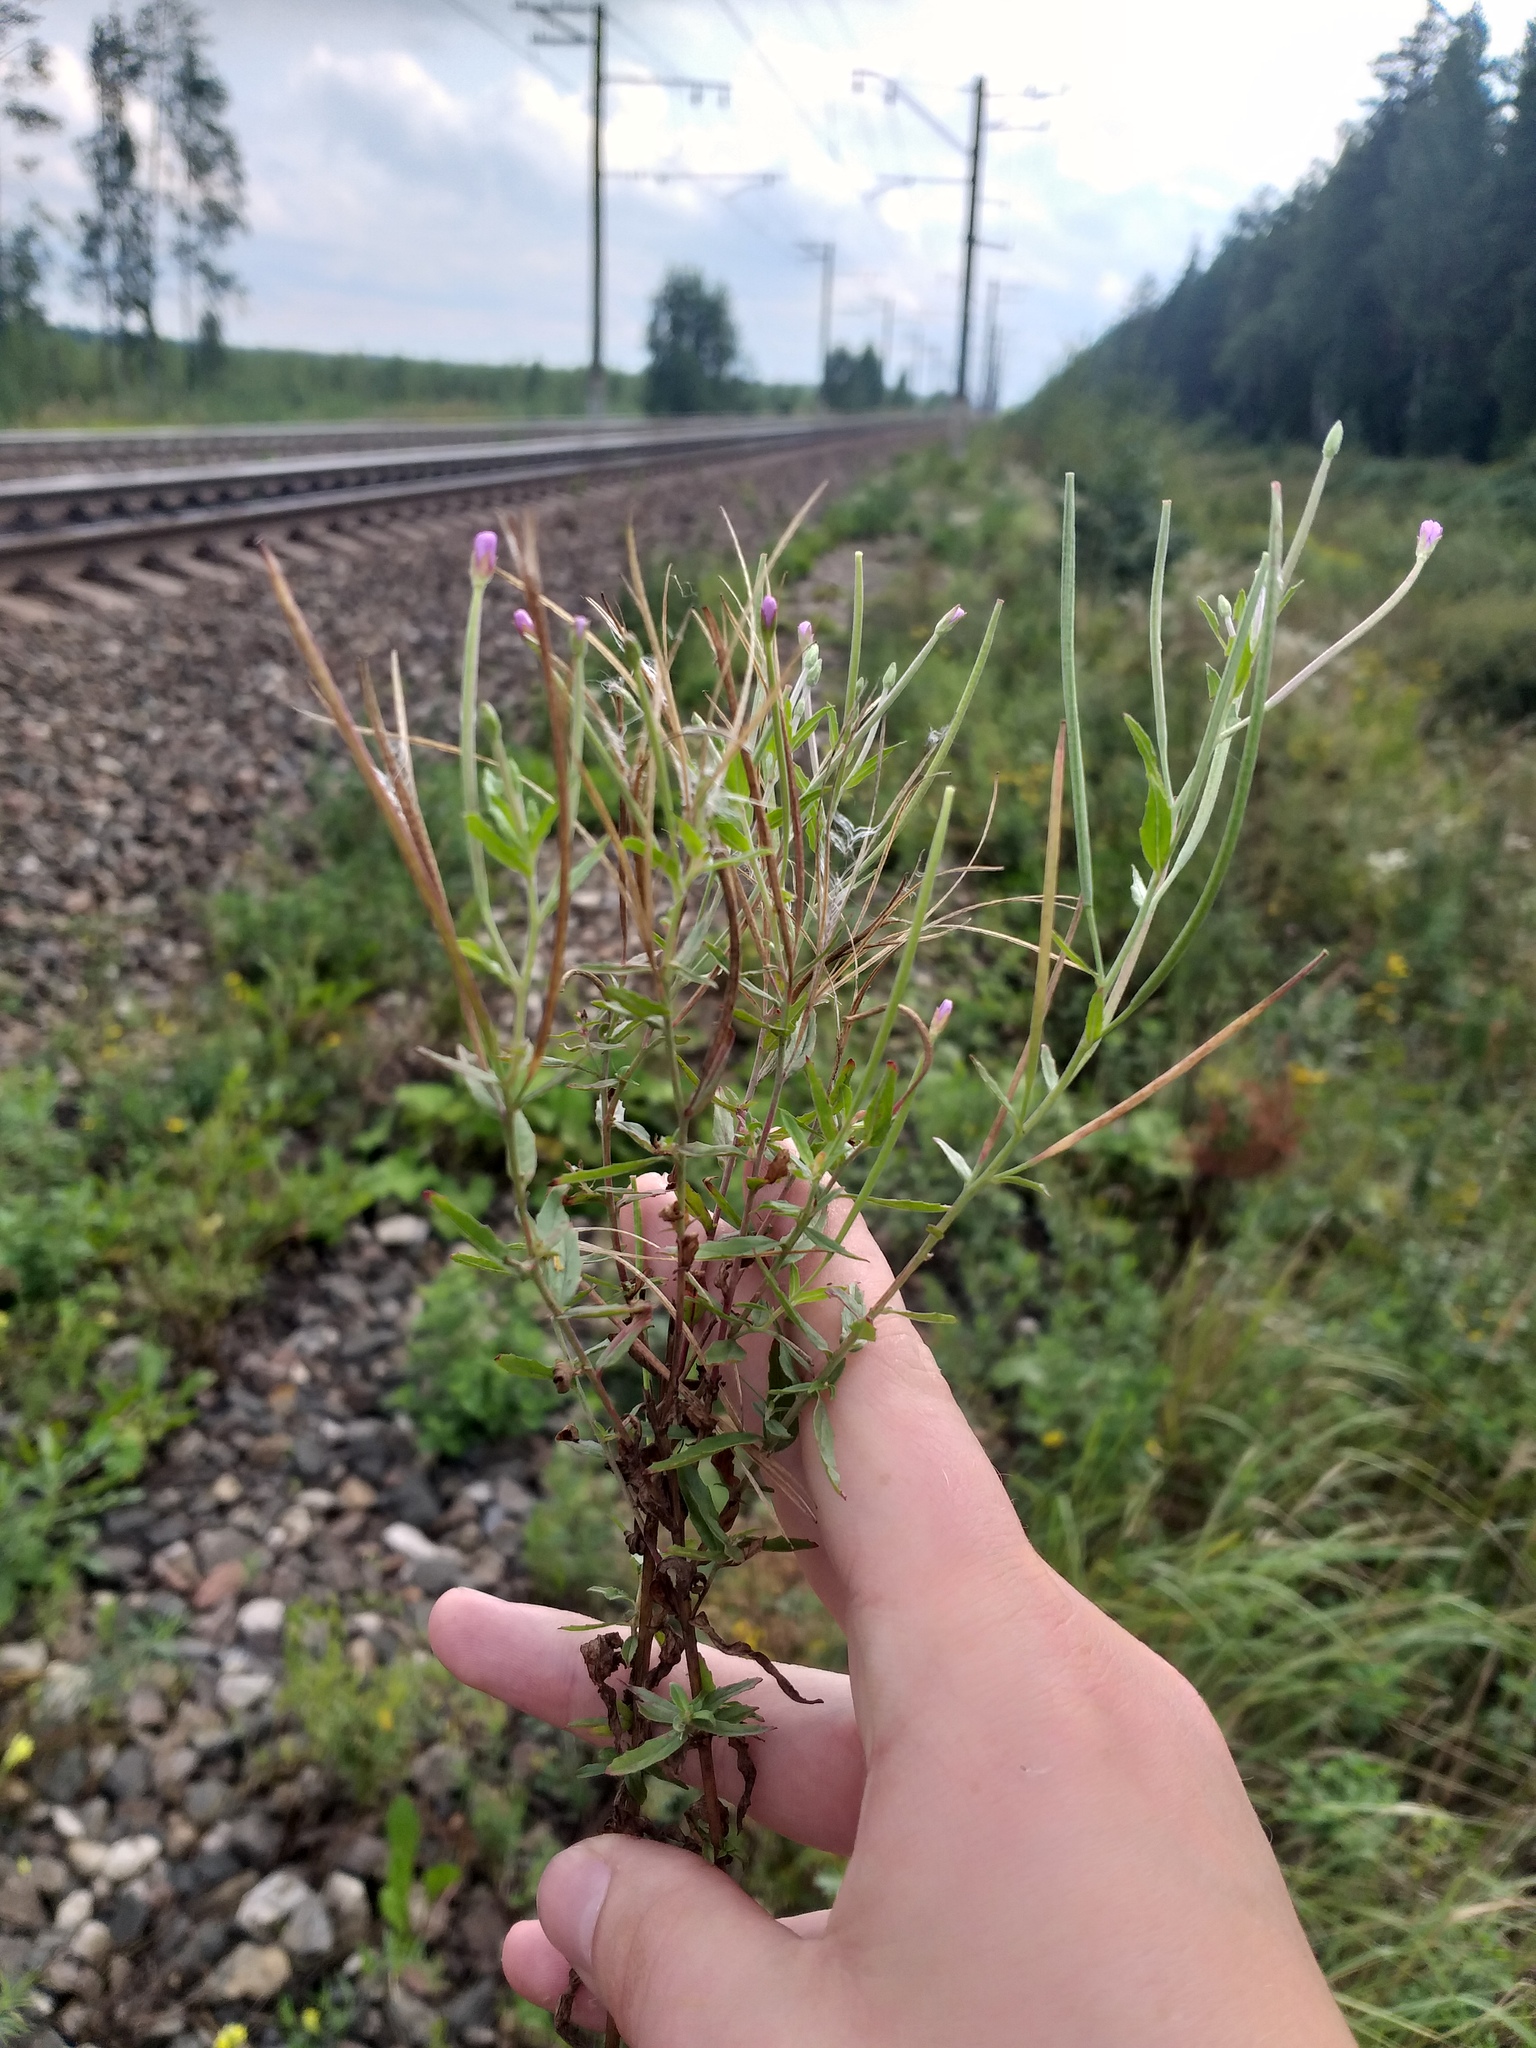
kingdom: Plantae
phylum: Tracheophyta
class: Magnoliopsida
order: Myrtales
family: Onagraceae
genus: Epilobium
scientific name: Epilobium tetragonum
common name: Square-stemmed willowherb
